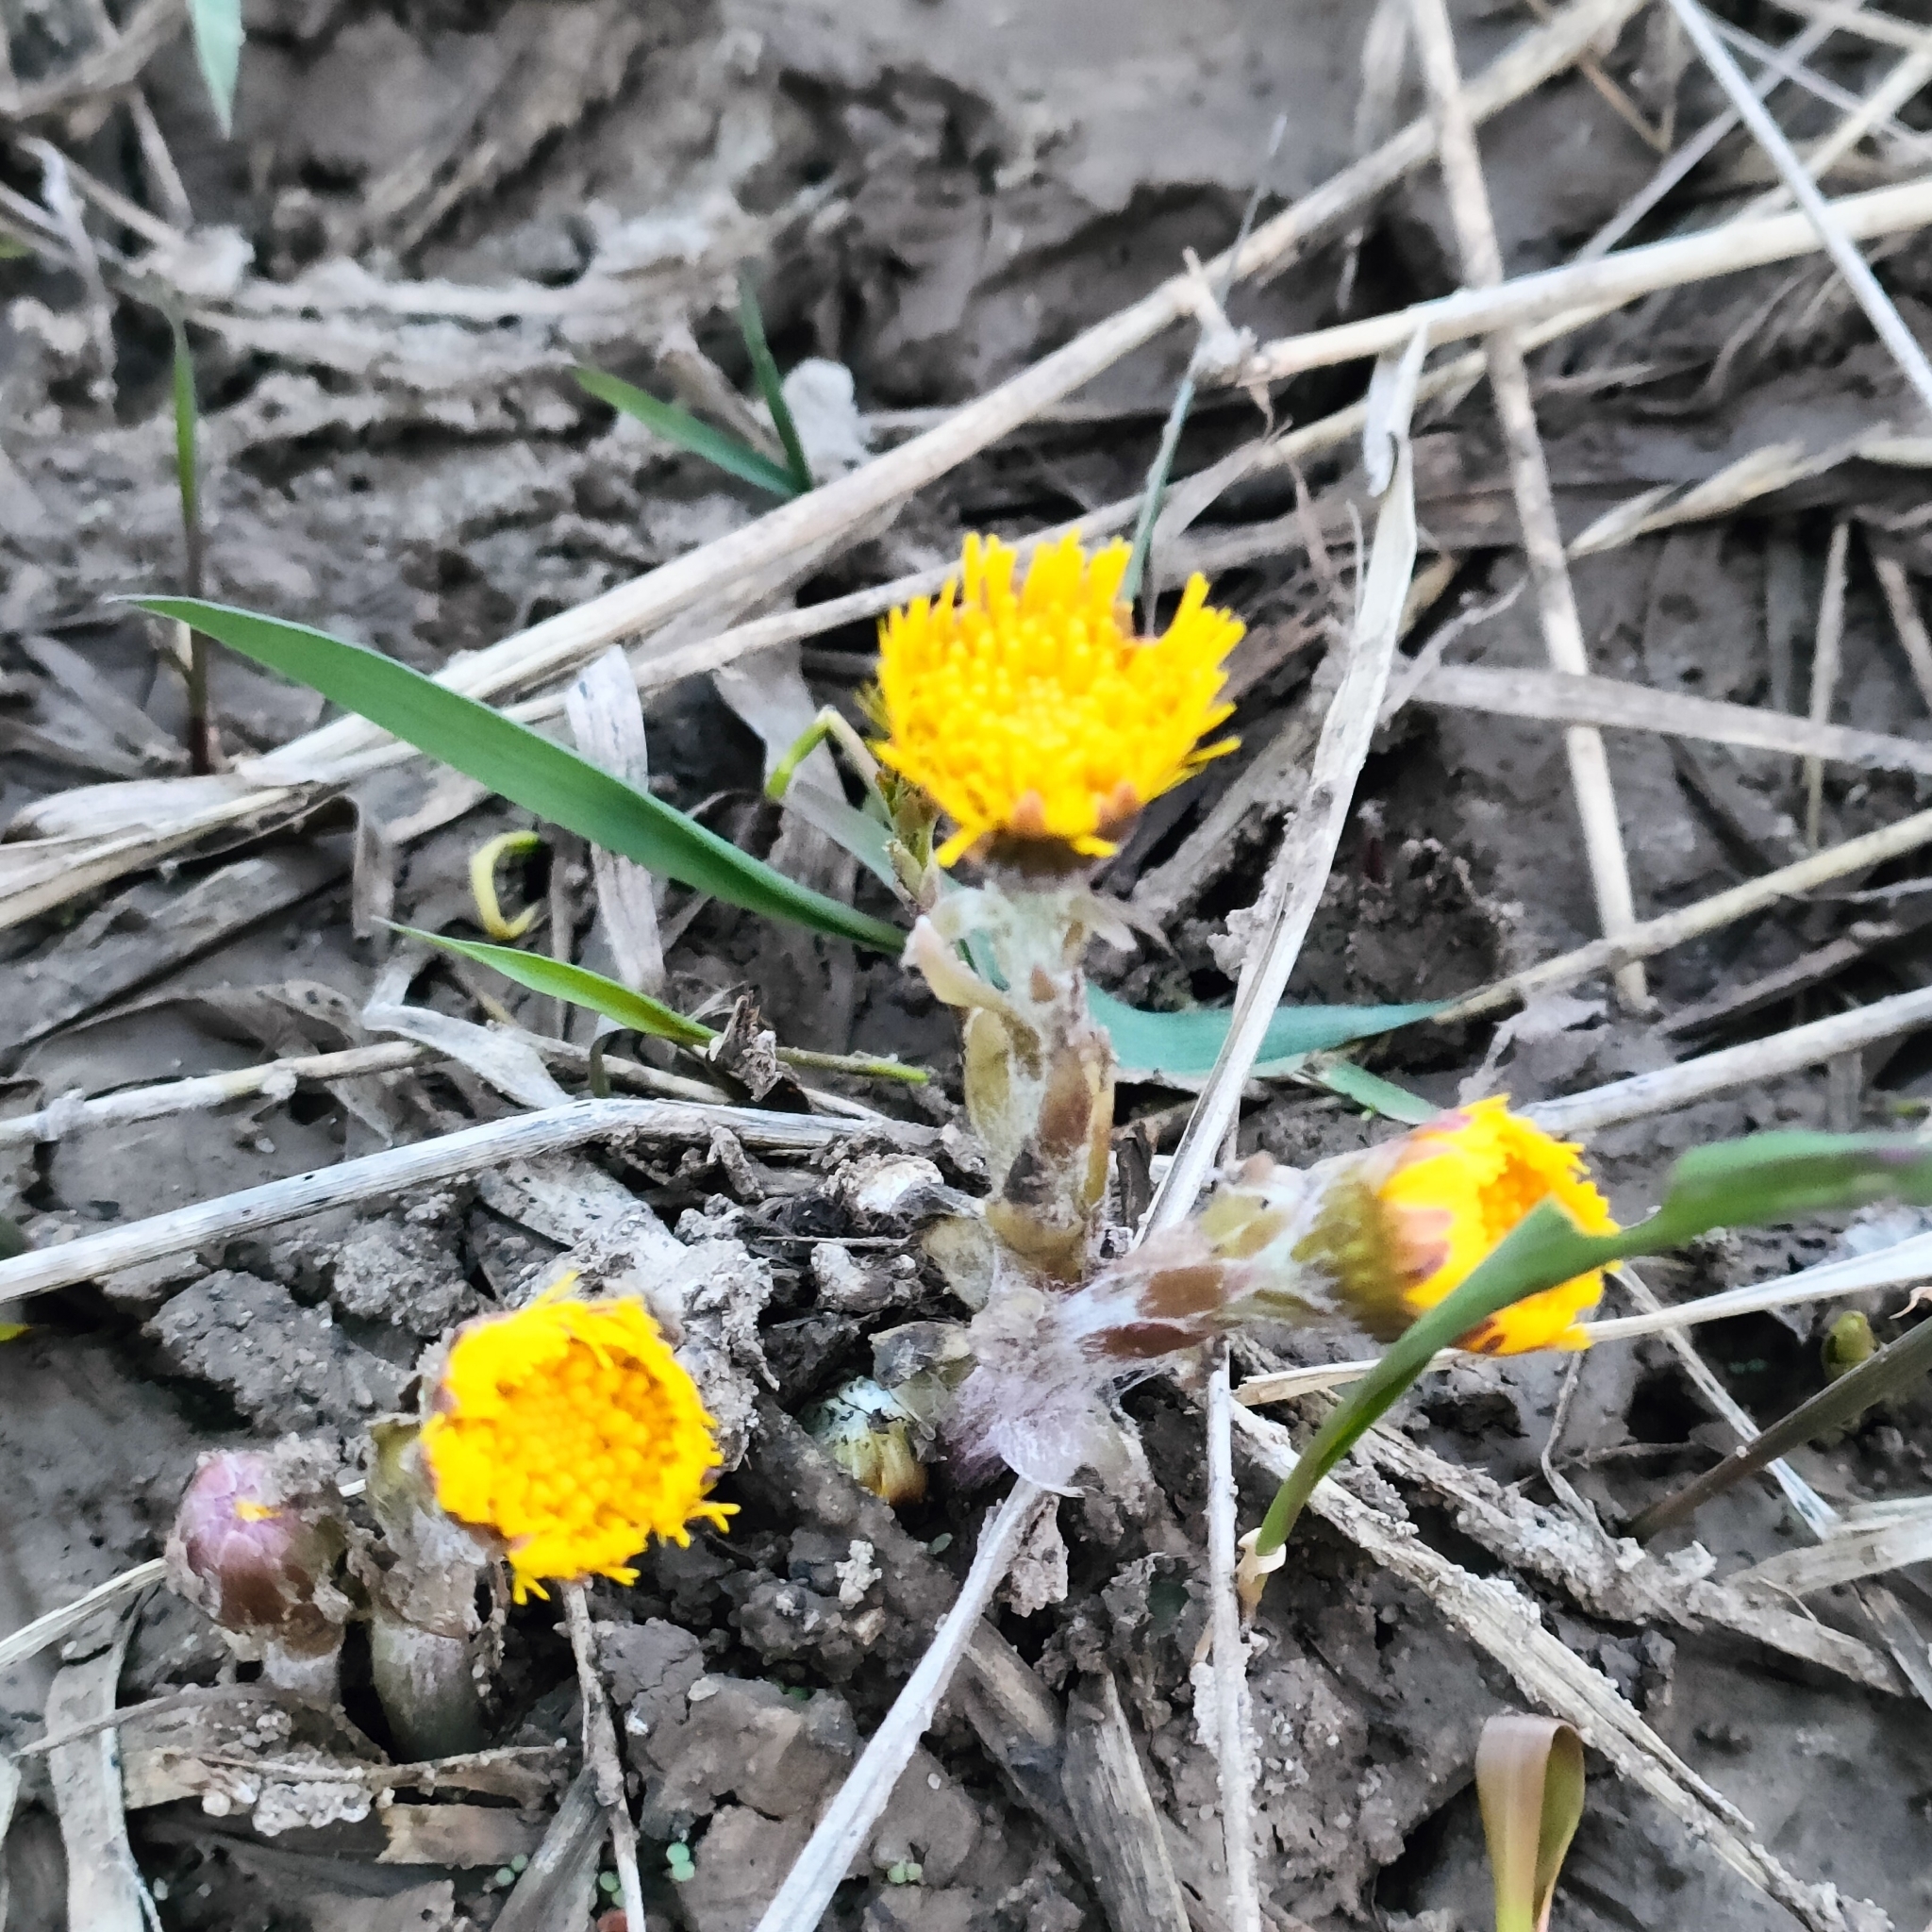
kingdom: Plantae
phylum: Tracheophyta
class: Magnoliopsida
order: Asterales
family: Asteraceae
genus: Tussilago
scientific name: Tussilago farfara
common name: Coltsfoot
